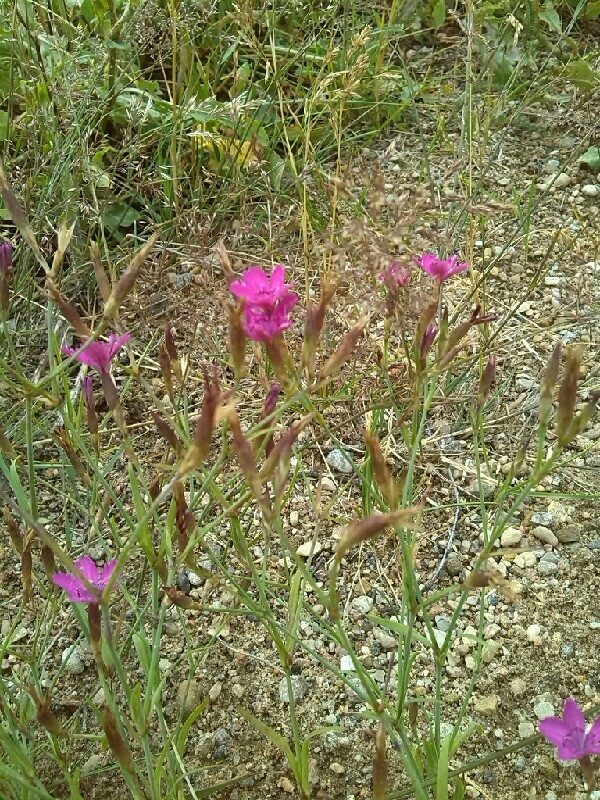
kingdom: Plantae
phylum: Tracheophyta
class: Magnoliopsida
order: Caryophyllales
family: Caryophyllaceae
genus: Dianthus
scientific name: Dianthus deltoides
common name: Maiden pink
